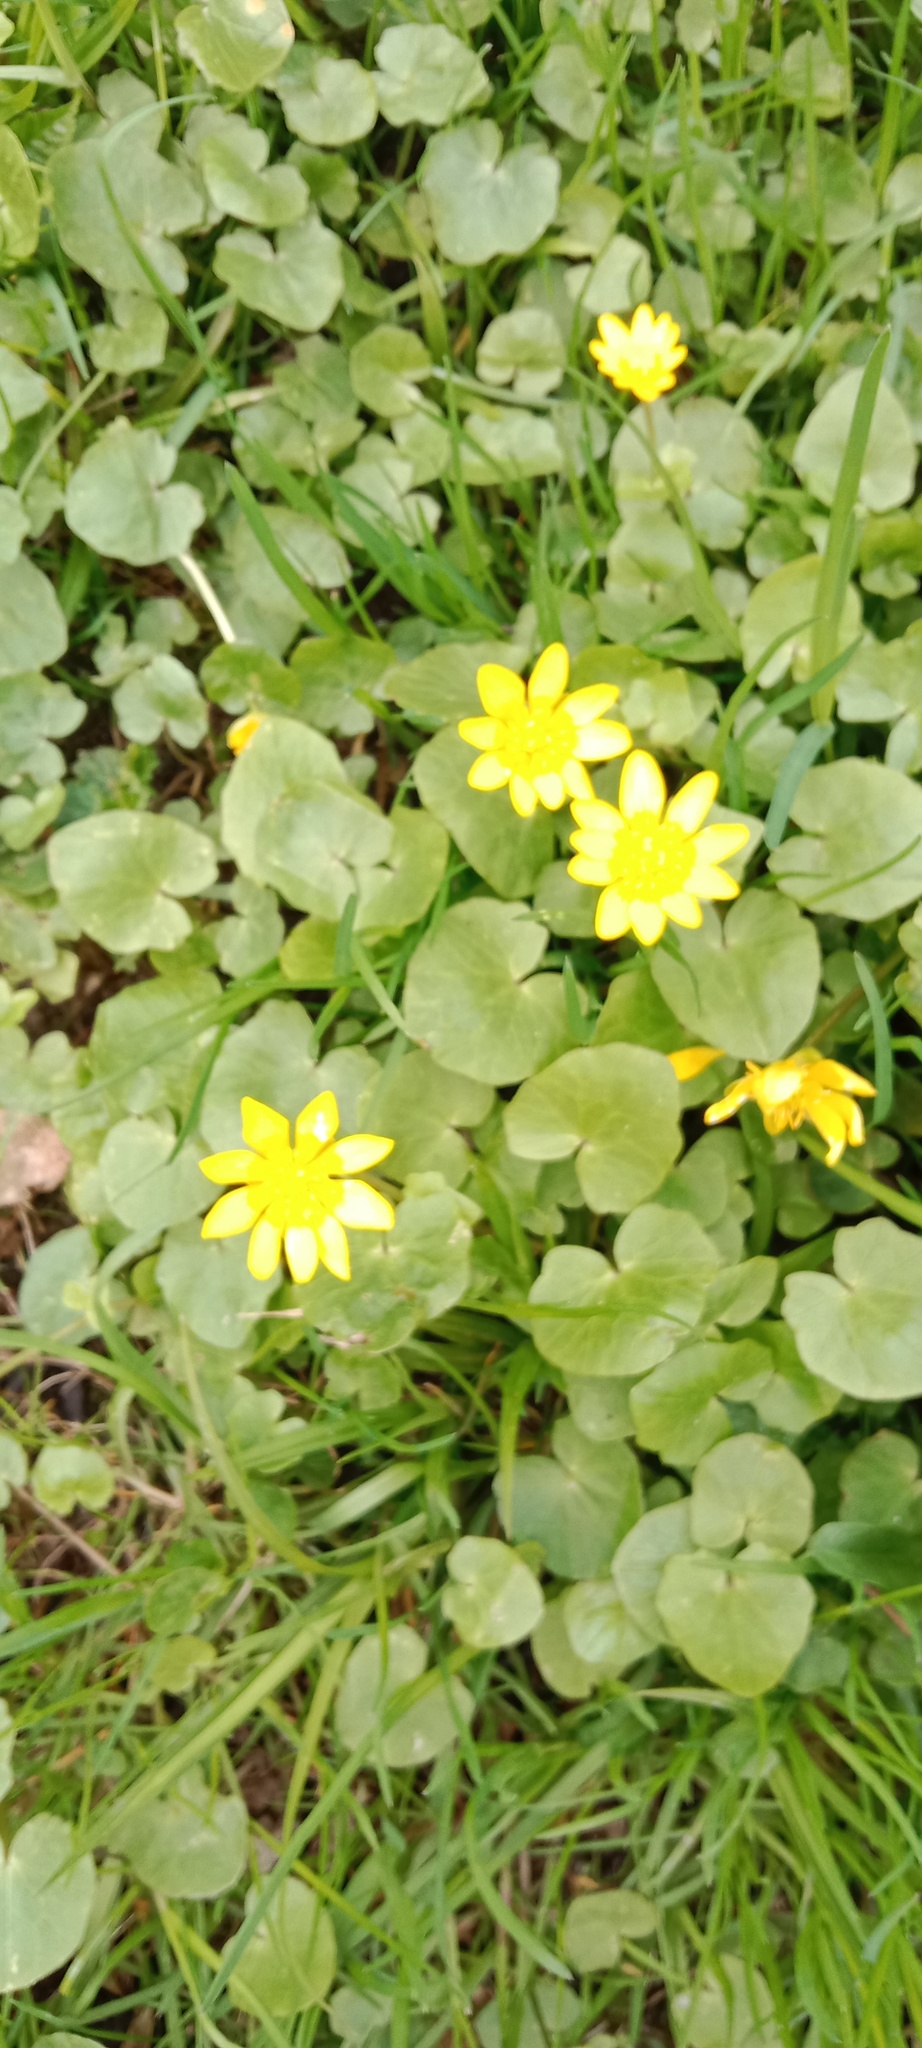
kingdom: Plantae
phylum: Tracheophyta
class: Magnoliopsida
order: Ranunculales
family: Ranunculaceae
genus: Ficaria
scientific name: Ficaria verna
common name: Lesser celandine
